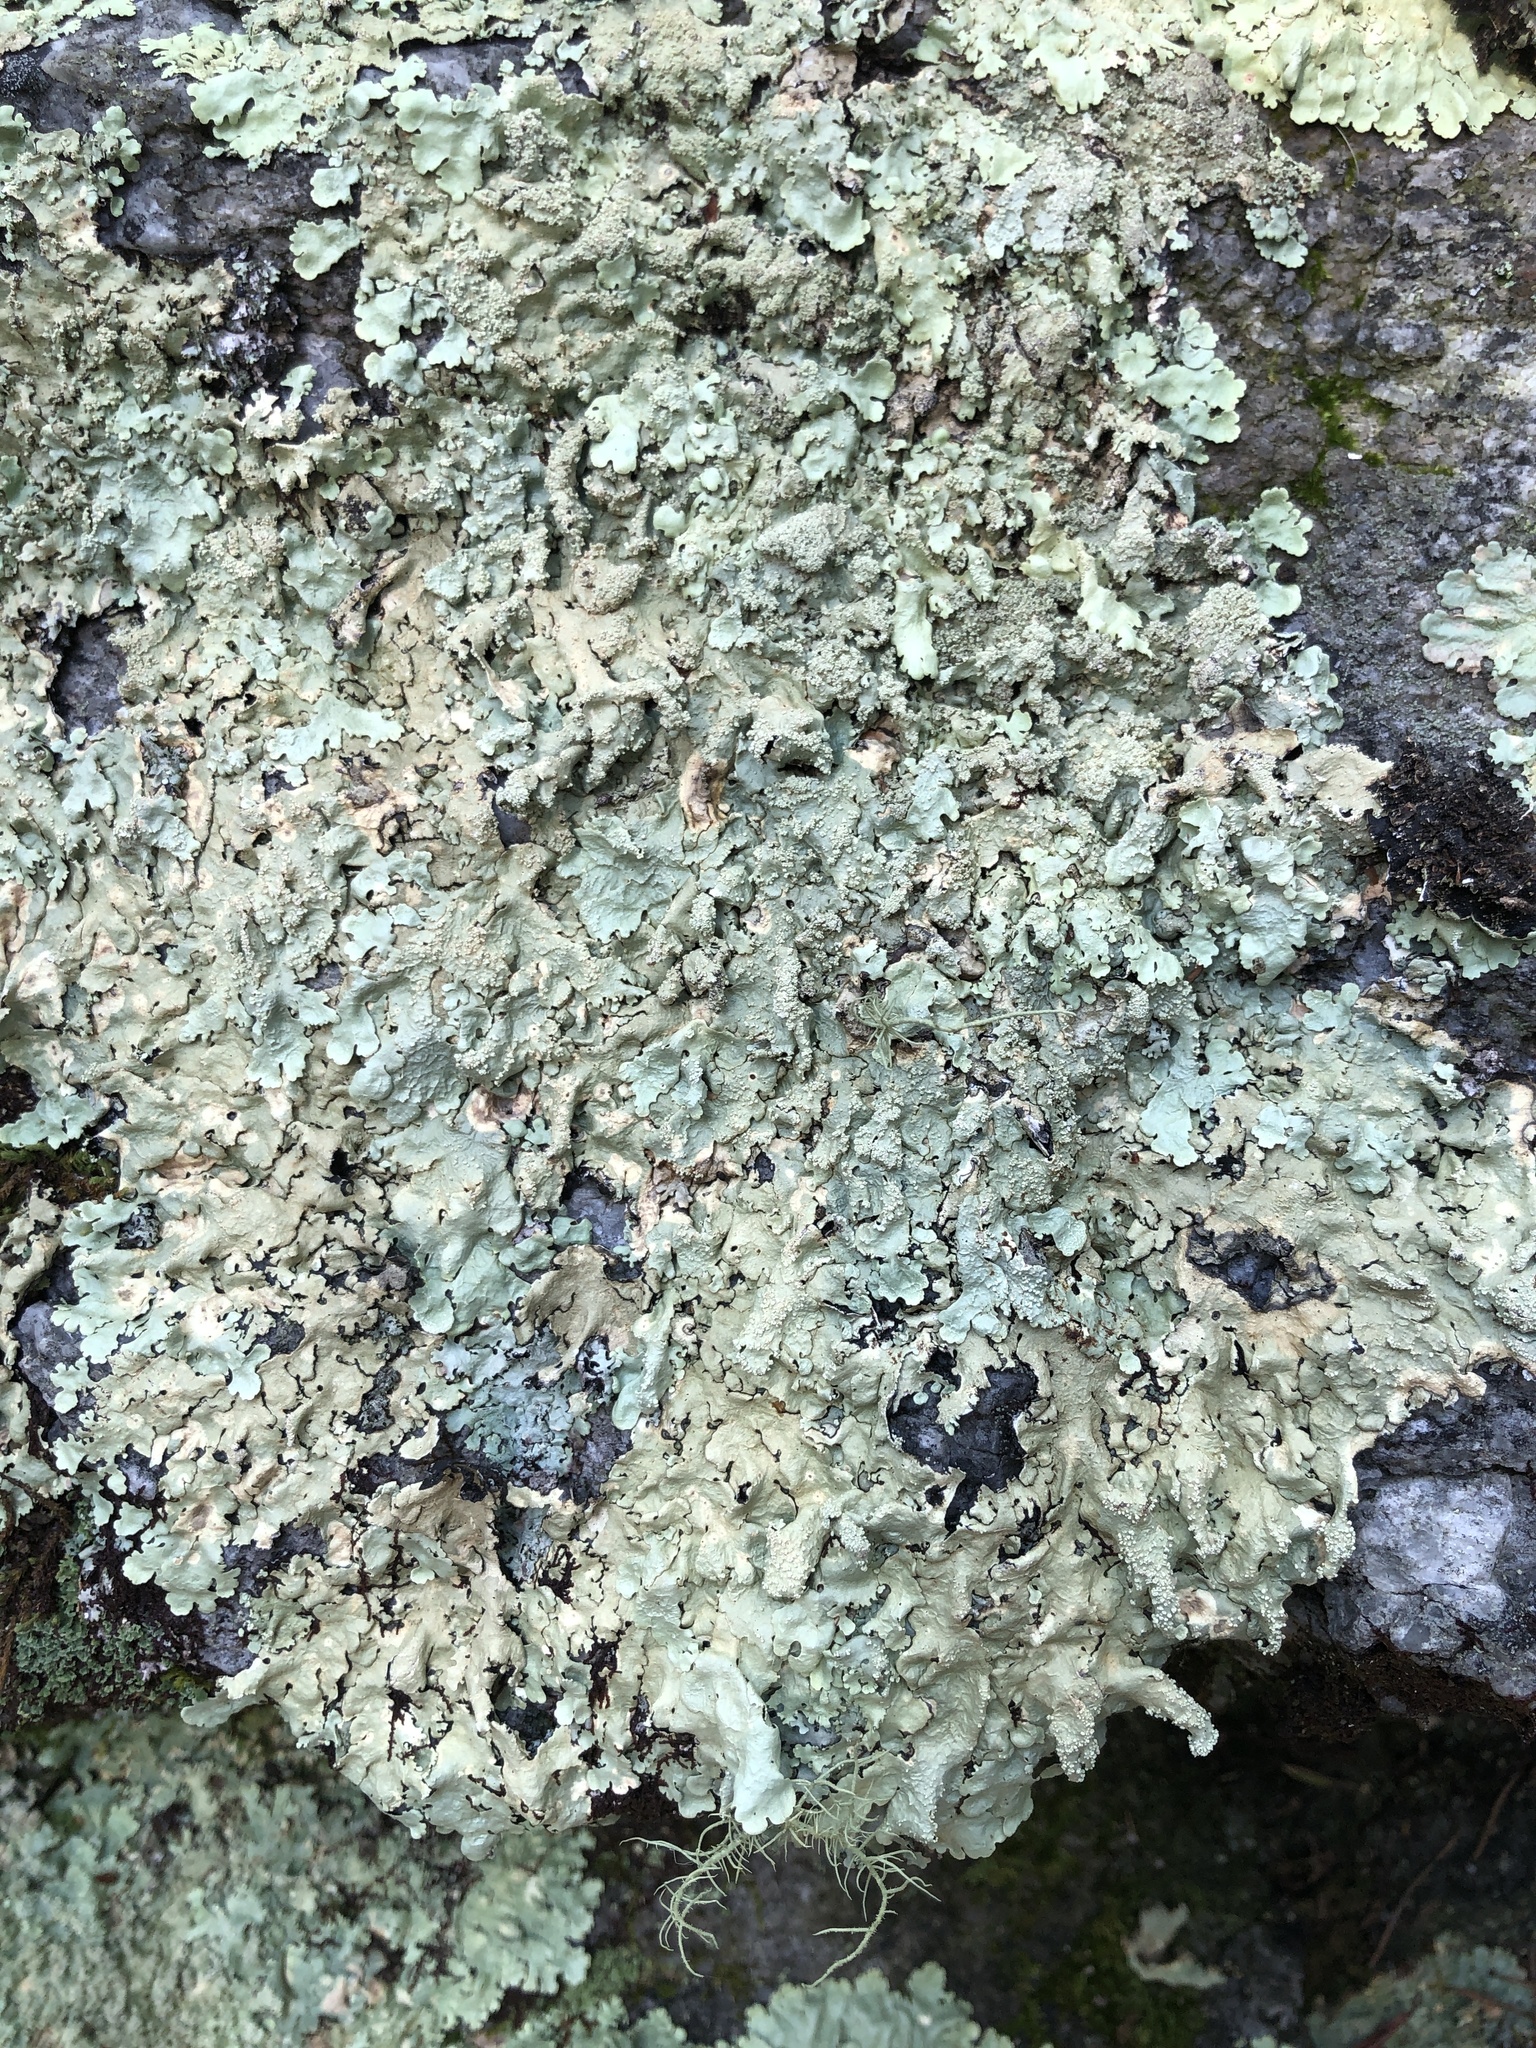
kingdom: Fungi
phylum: Ascomycota
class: Lecanoromycetes
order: Lecanorales
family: Parmeliaceae
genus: Flavoparmelia
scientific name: Flavoparmelia baltimorensis
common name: Rock greenshield
